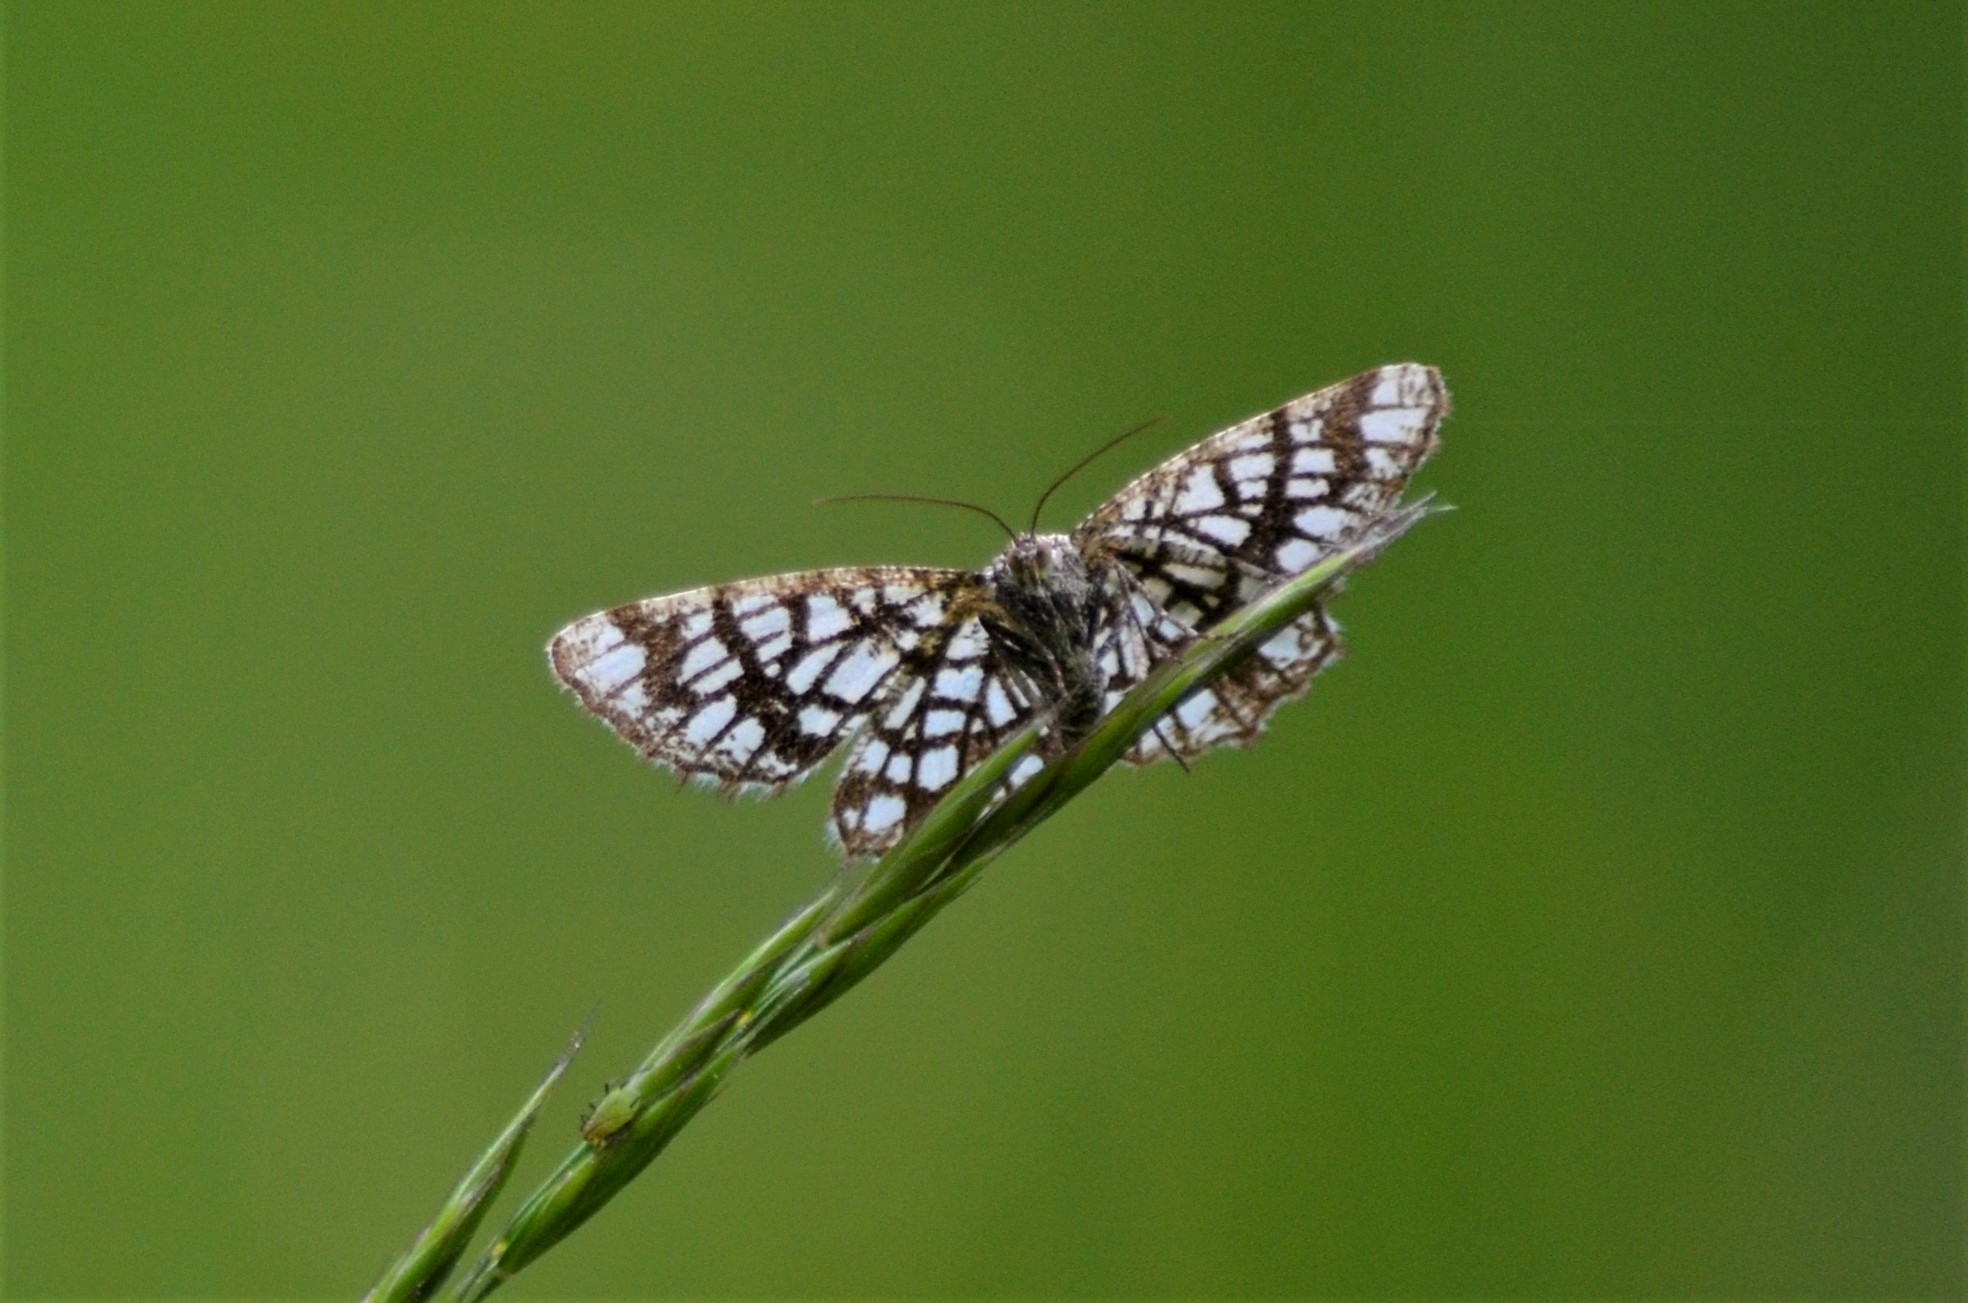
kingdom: Animalia
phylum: Arthropoda
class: Insecta
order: Lepidoptera
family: Geometridae
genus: Chiasmia
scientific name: Chiasmia clathrata
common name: Latticed heath
